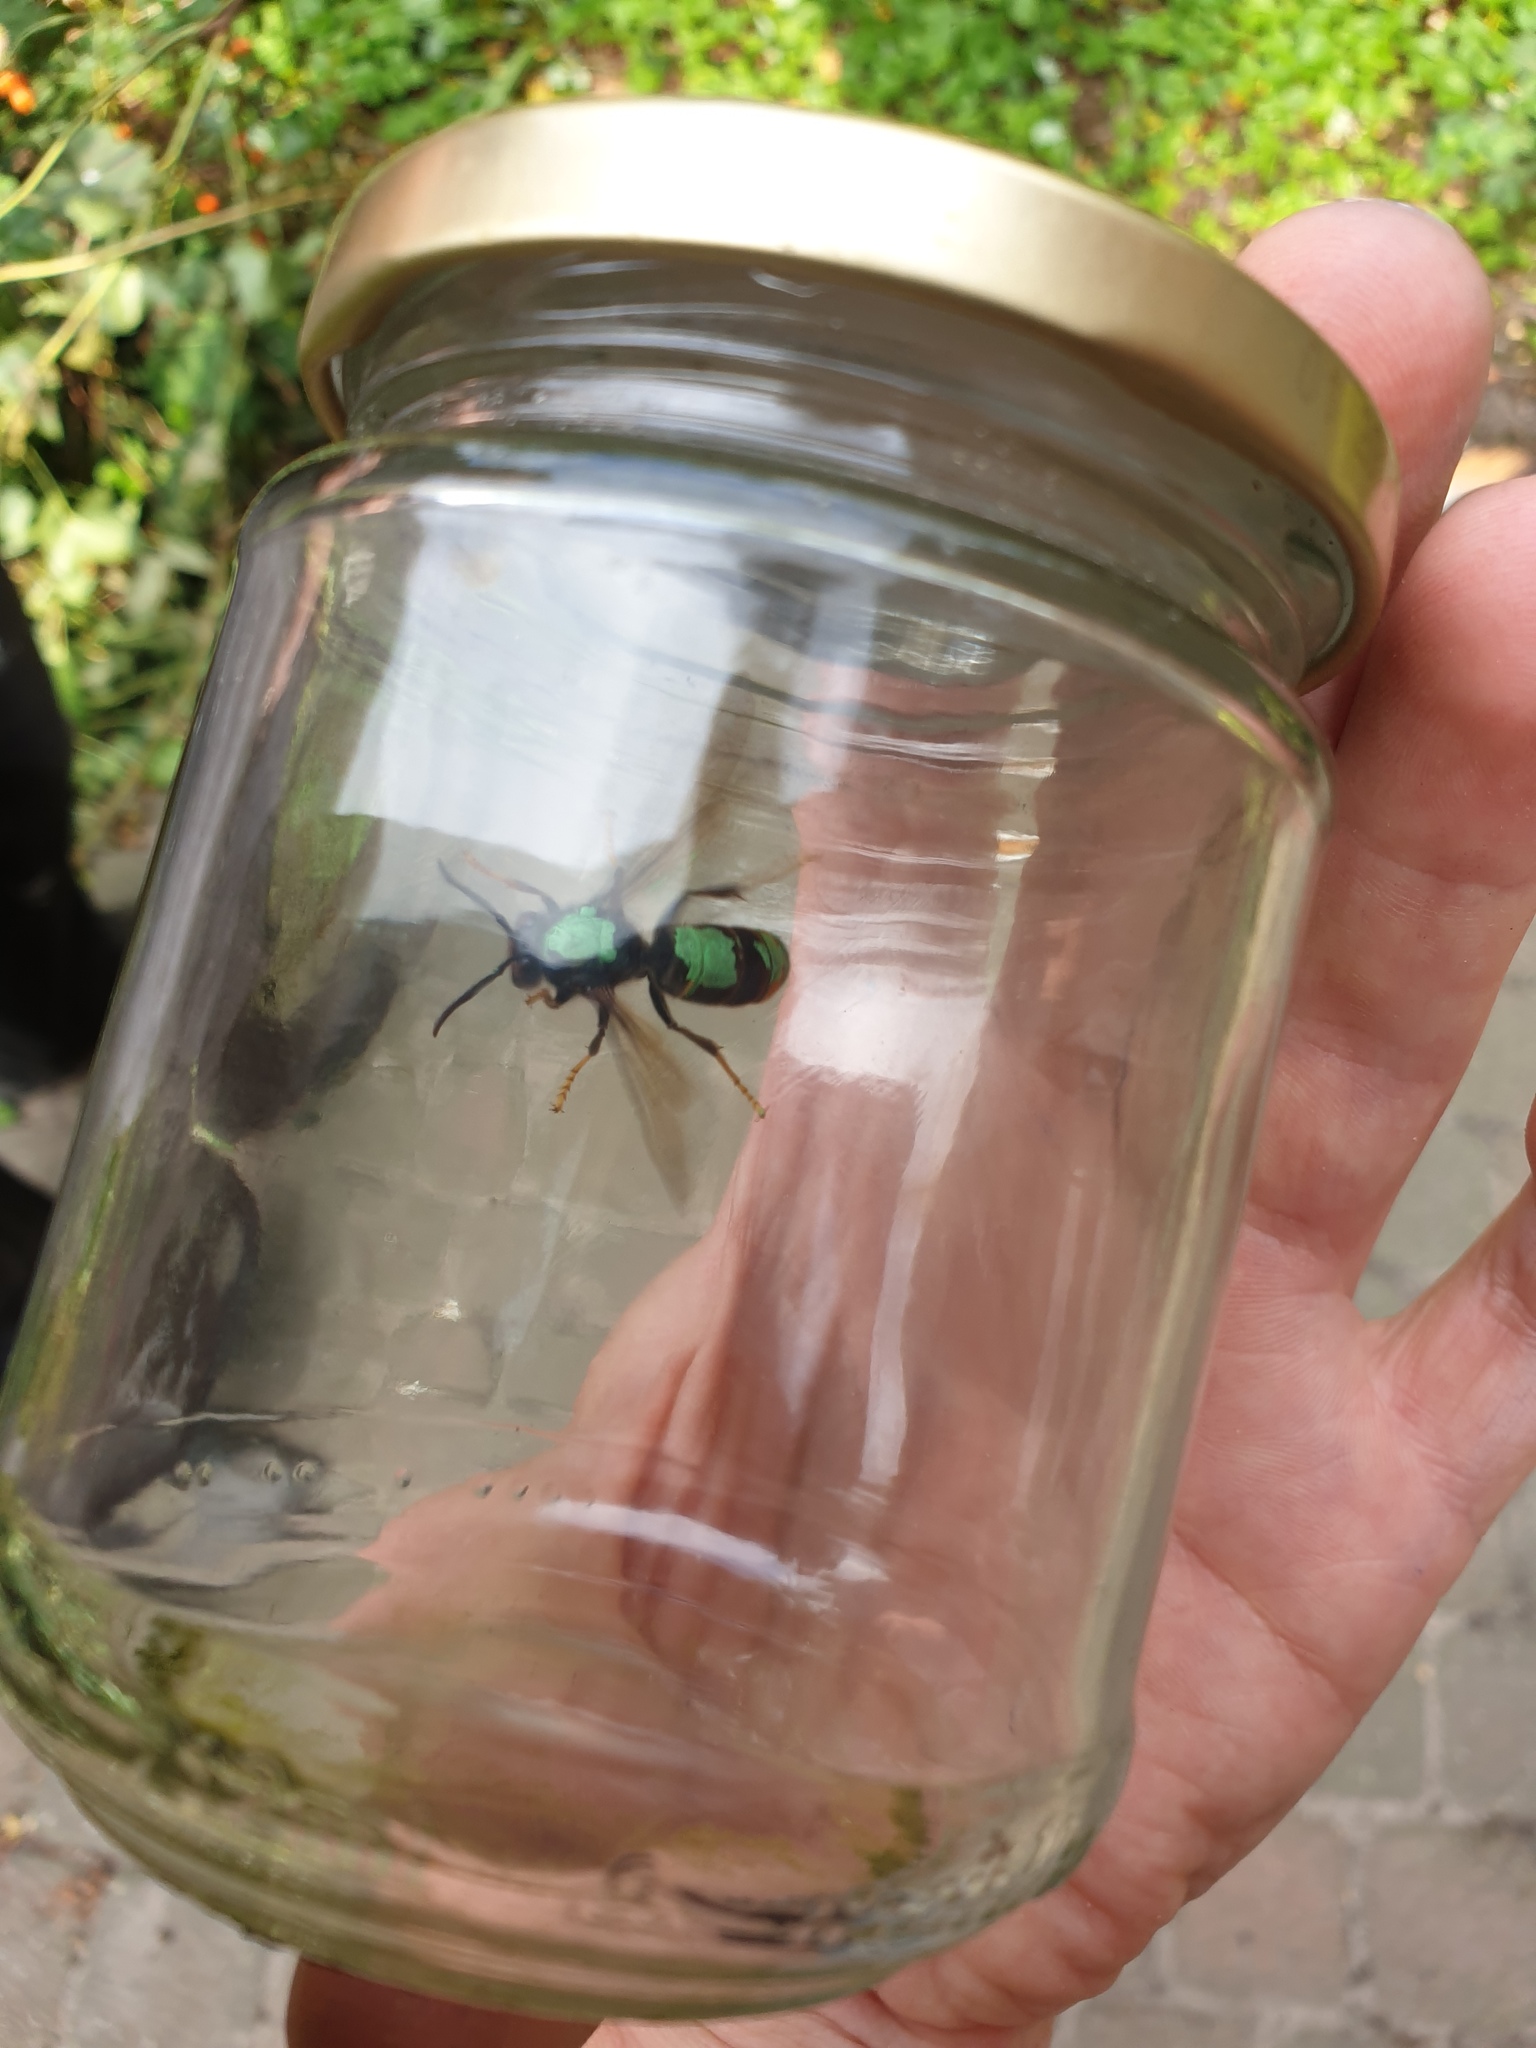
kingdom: Animalia
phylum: Arthropoda
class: Insecta
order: Hymenoptera
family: Vespidae
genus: Vespa
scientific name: Vespa velutina
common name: Asian hornet
